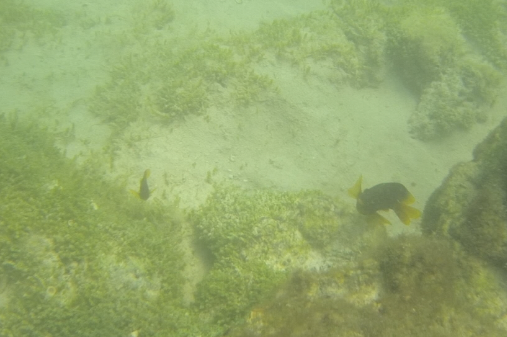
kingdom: Animalia
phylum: Chordata
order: Perciformes
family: Pomacentridae
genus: Stegastes
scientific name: Stegastes arcifrons
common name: Galapagos gregory
